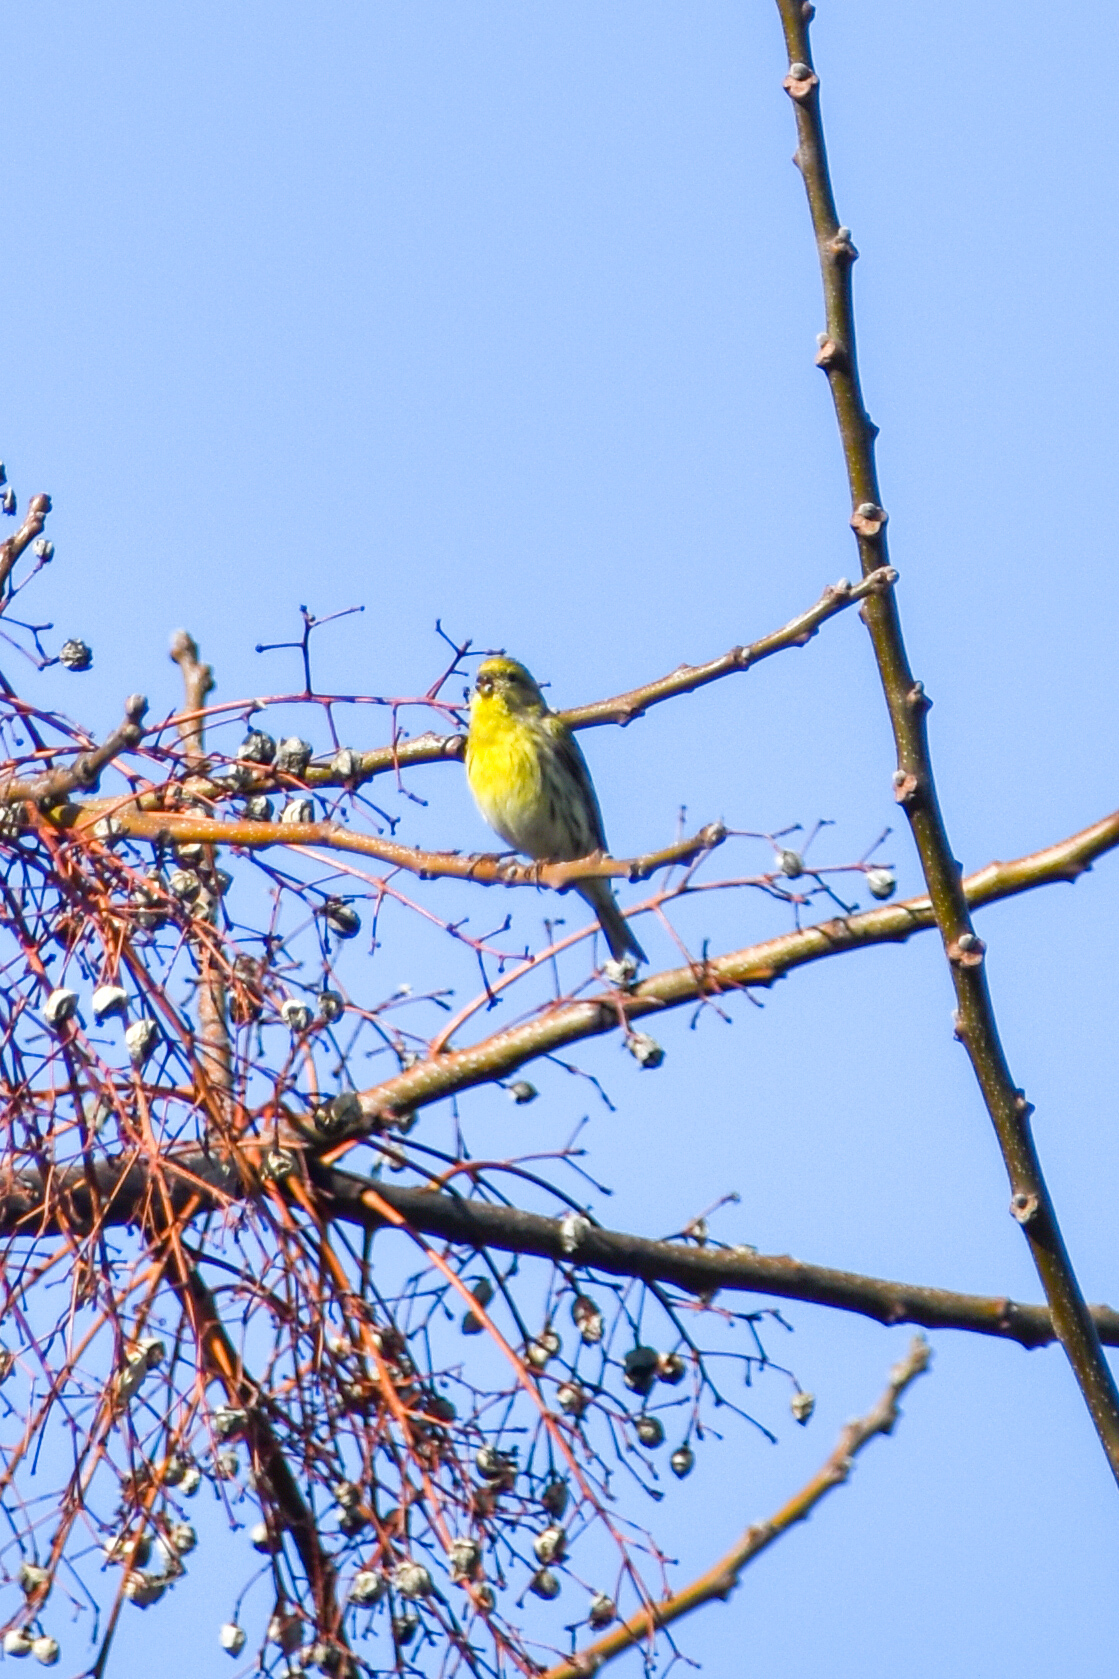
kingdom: Animalia
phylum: Chordata
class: Aves
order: Passeriformes
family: Fringillidae
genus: Serinus
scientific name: Serinus serinus
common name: European serin
